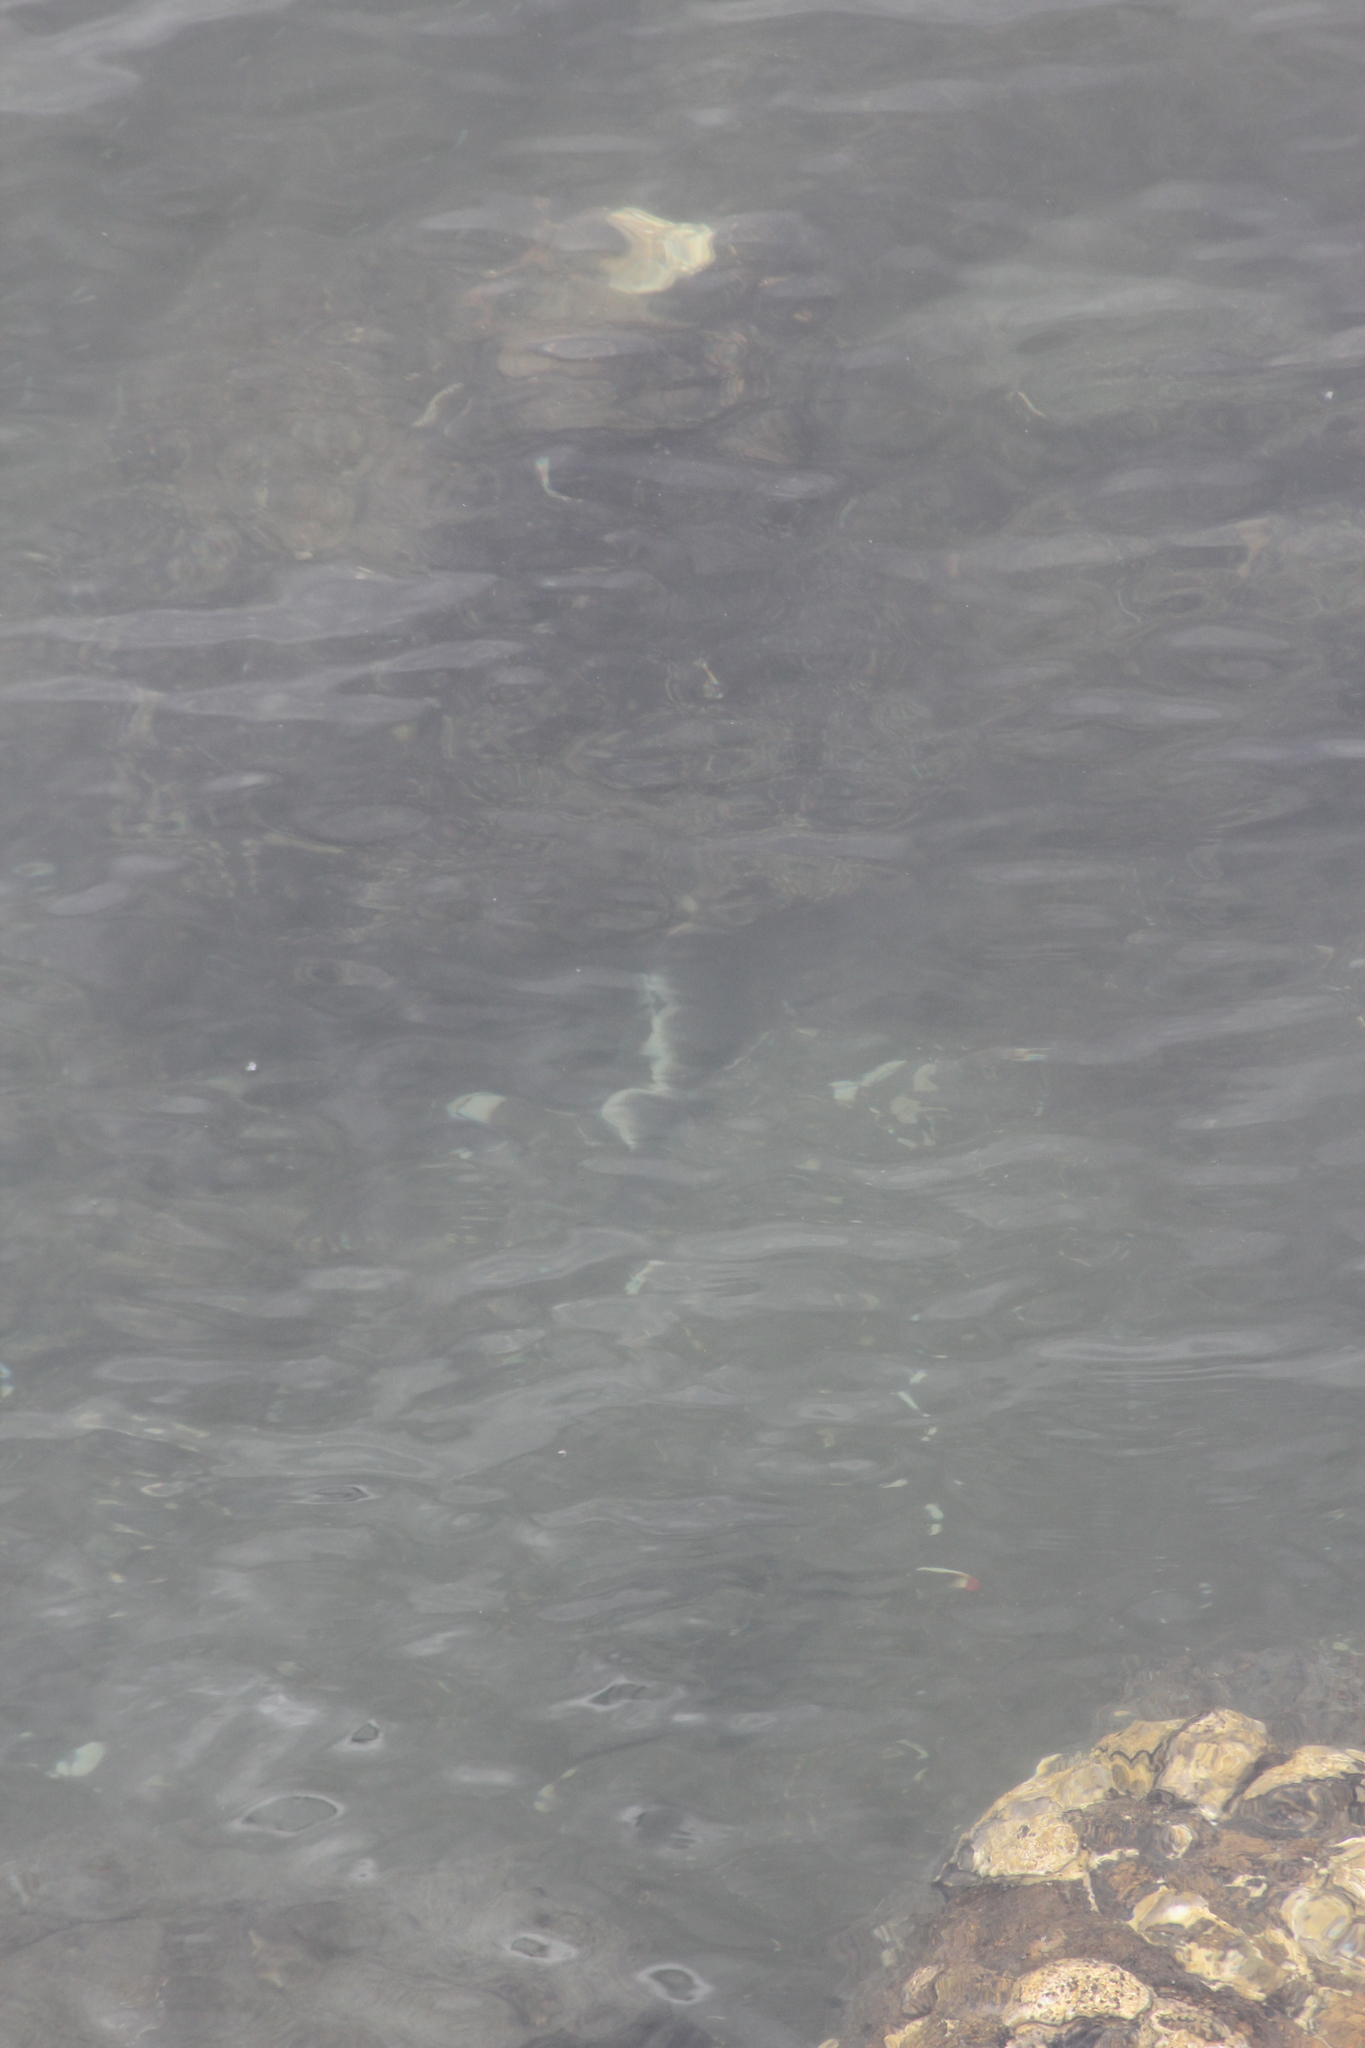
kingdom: Animalia
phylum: Chordata
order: Perciformes
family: Serranidae
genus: Paralabrax
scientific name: Paralabrax maculatofasciatus
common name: Spotted sand bass
